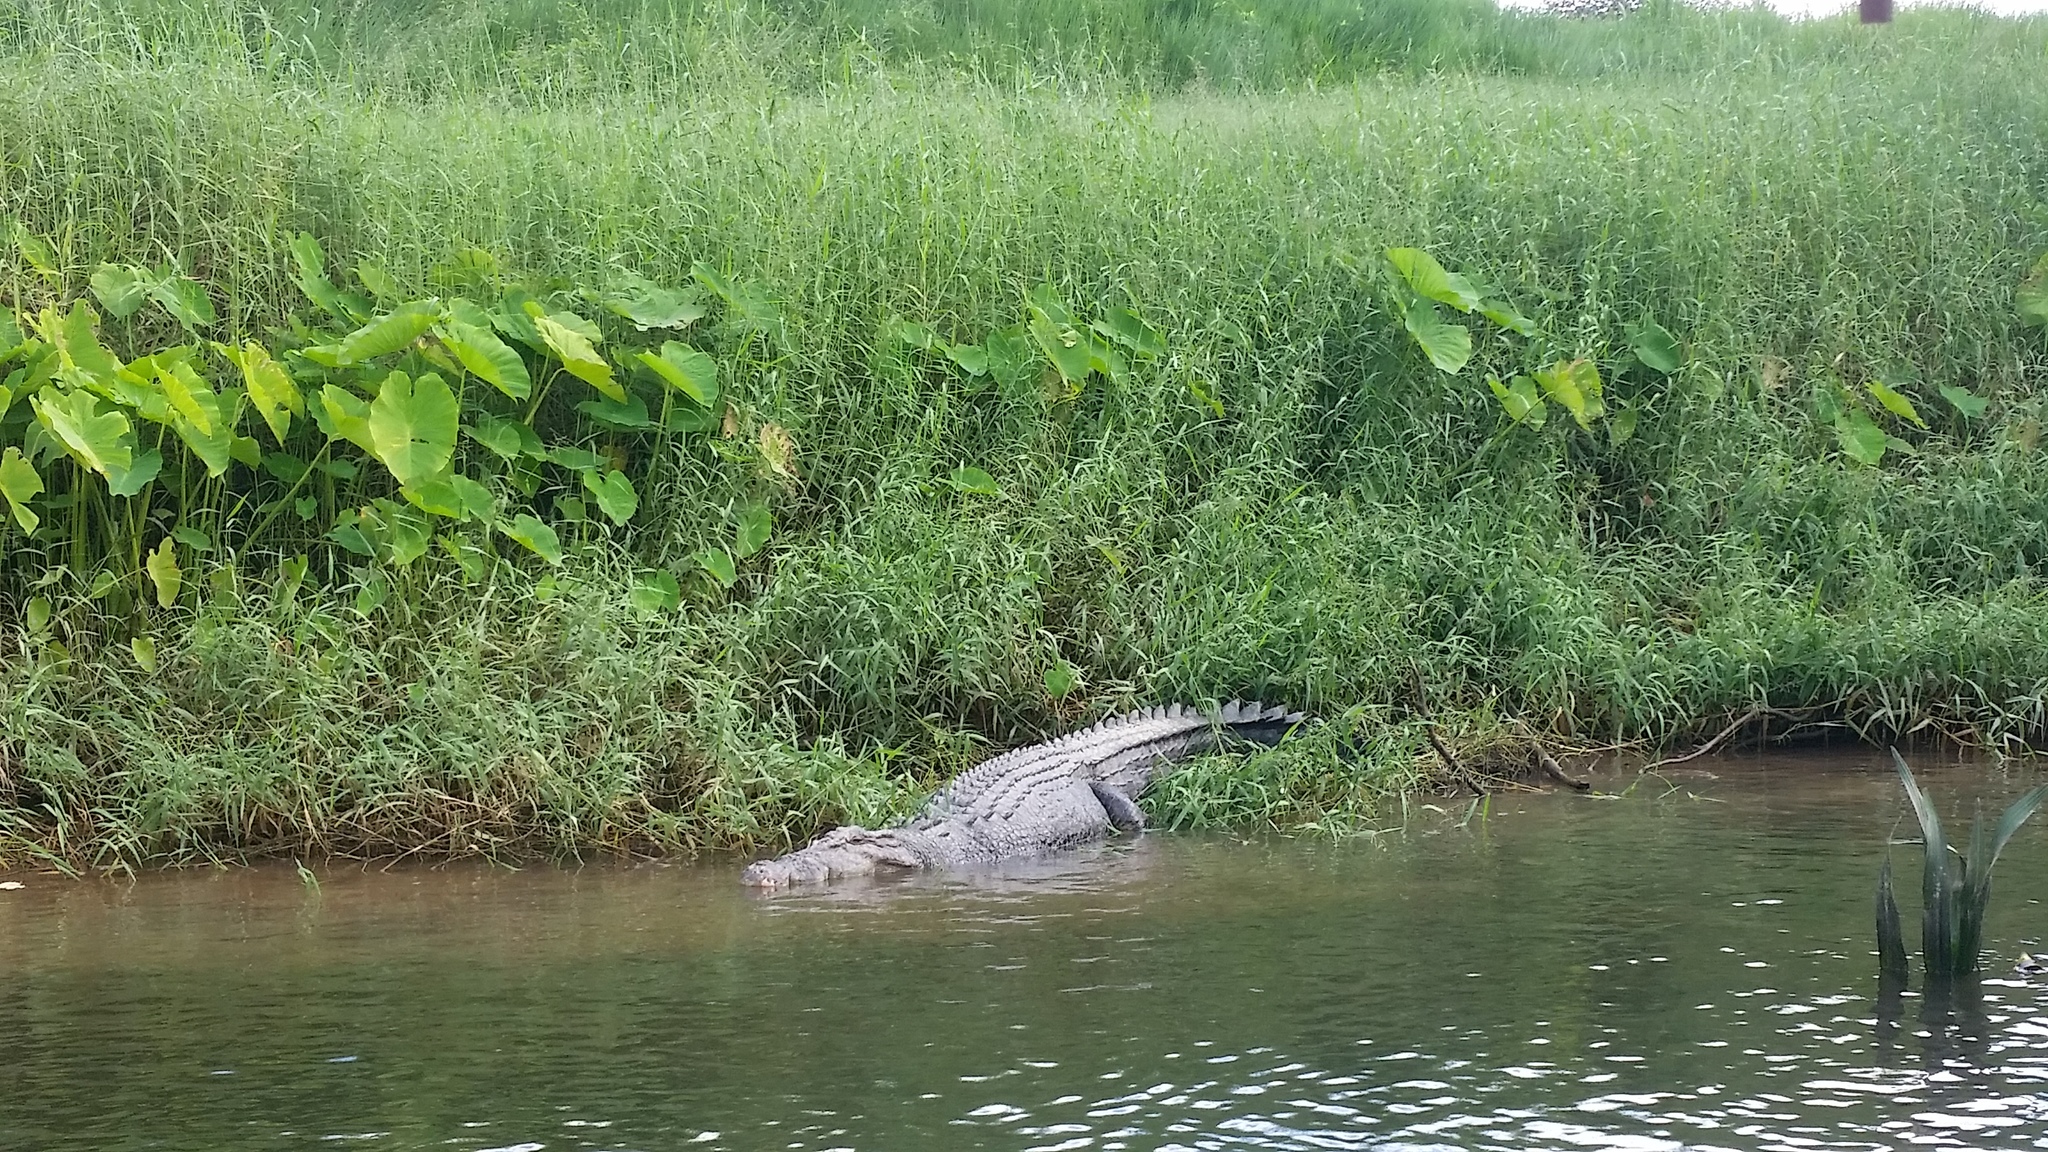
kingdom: Animalia
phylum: Chordata
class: Crocodylia
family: Crocodylidae
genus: Crocodylus
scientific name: Crocodylus porosus
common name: Saltwater crocodile
